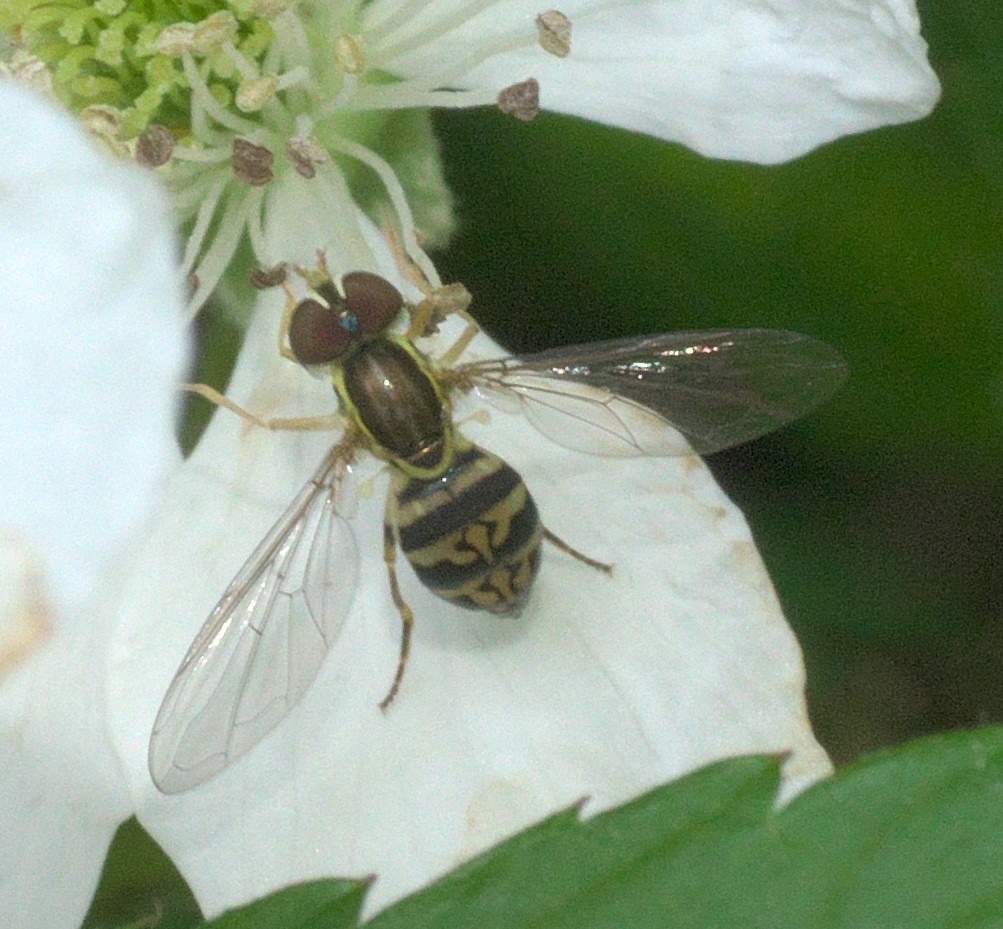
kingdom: Animalia
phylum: Arthropoda
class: Insecta
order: Diptera
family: Syrphidae
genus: Toxomerus
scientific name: Toxomerus geminatus
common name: Eastern calligrapher
